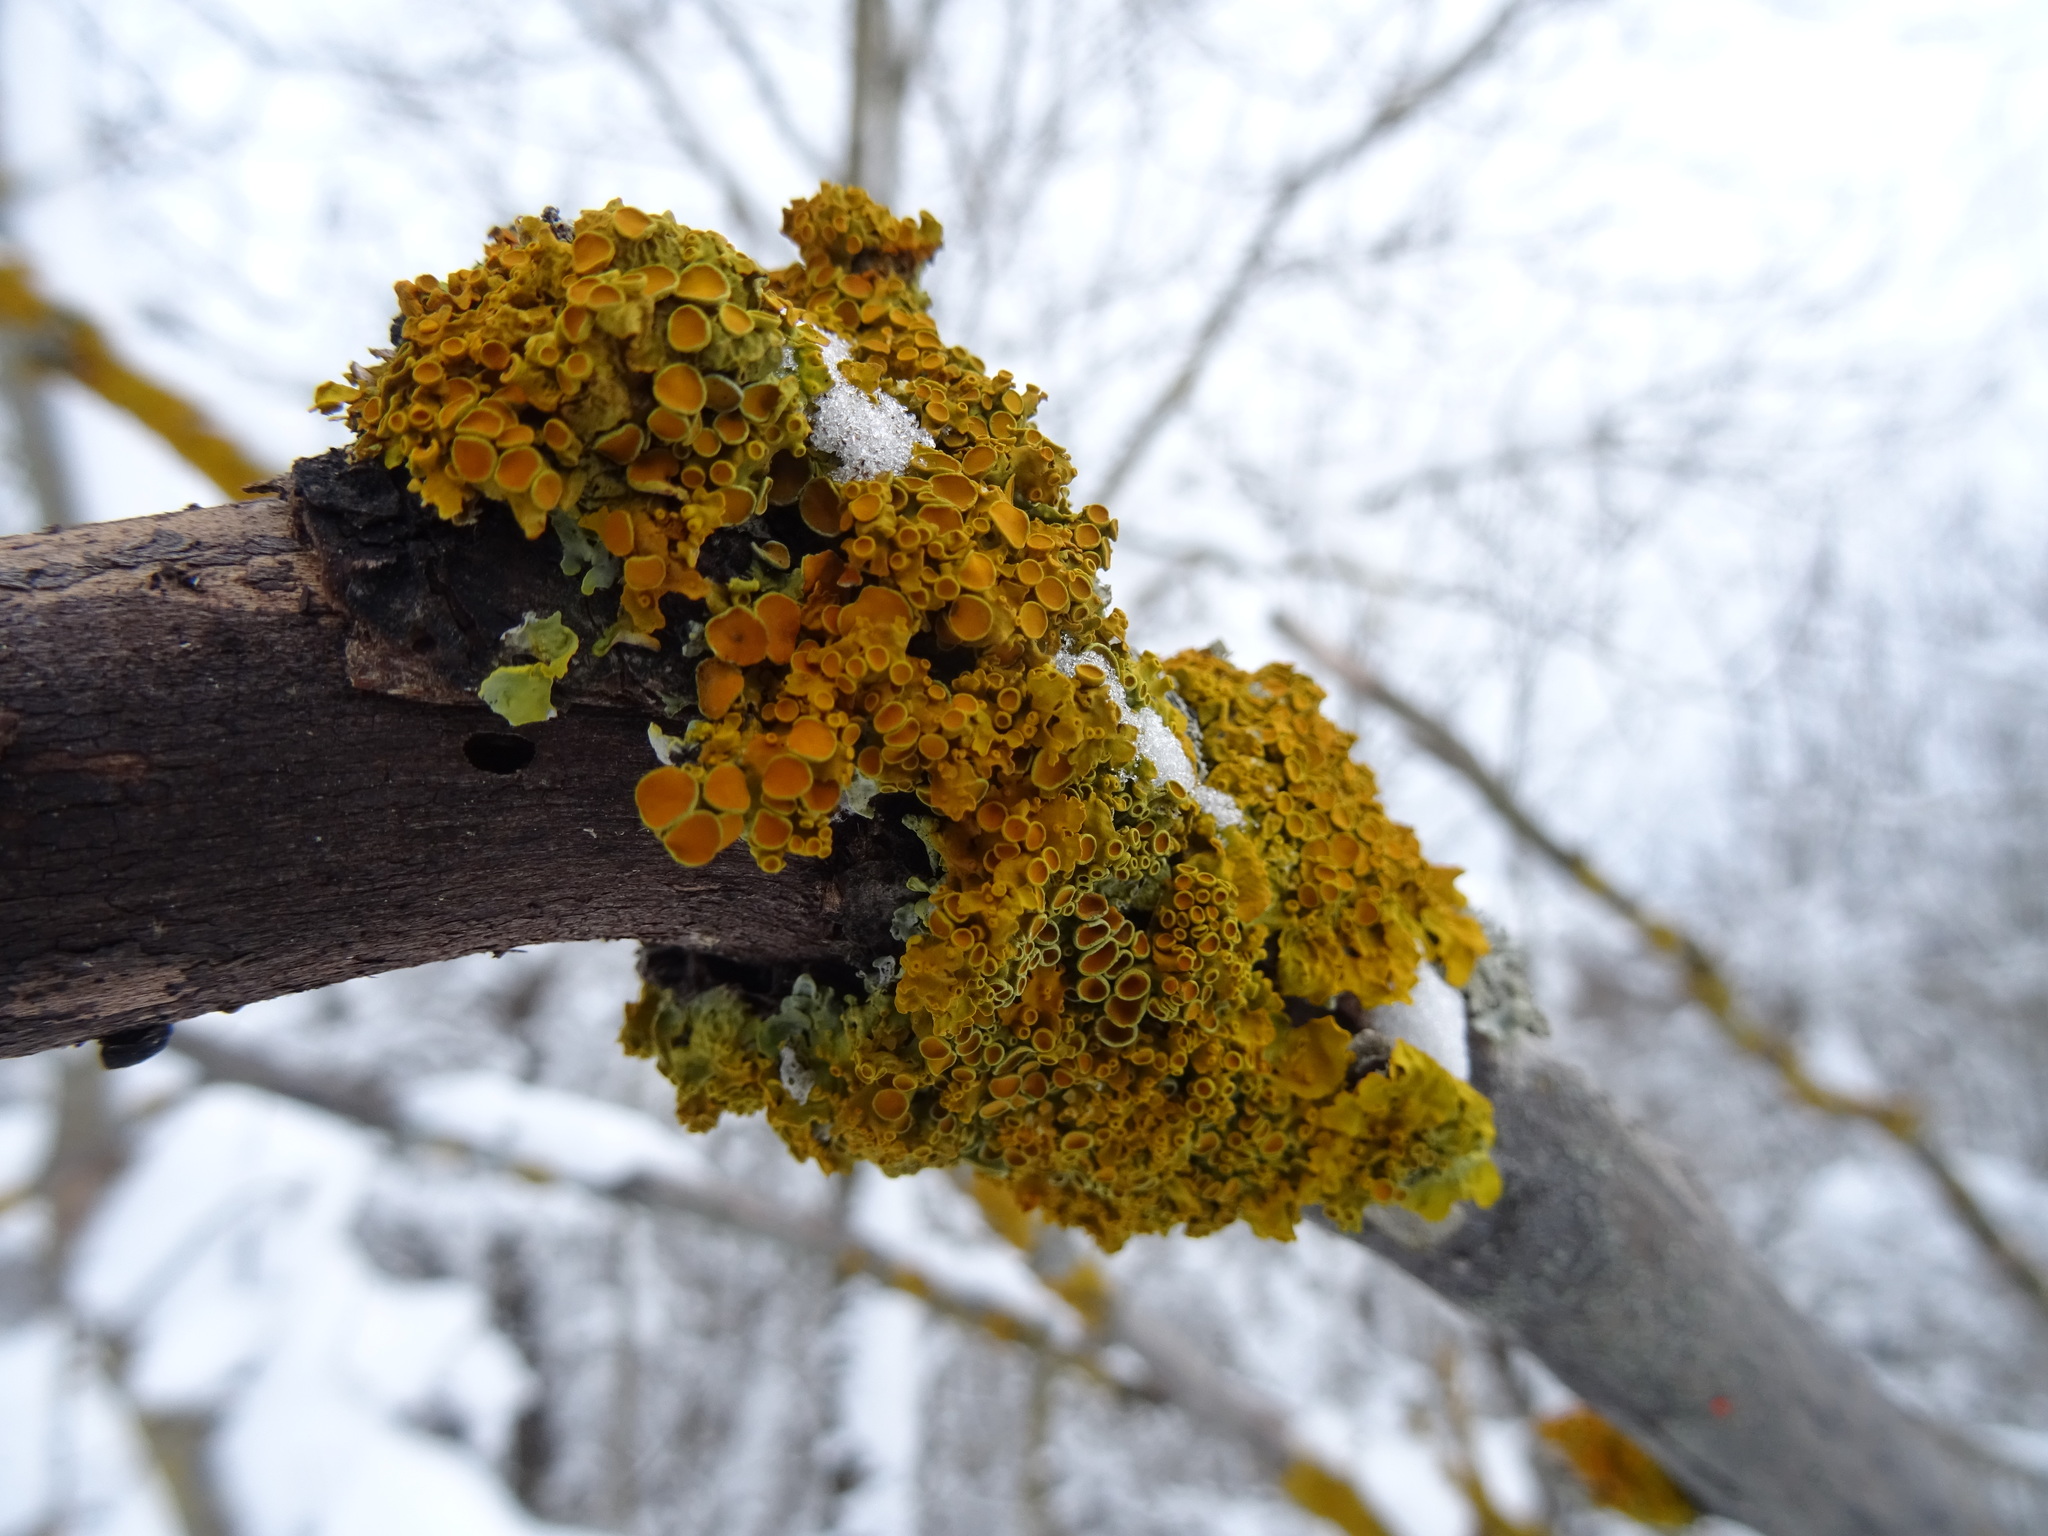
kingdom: Fungi
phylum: Ascomycota
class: Lecanoromycetes
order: Teloschistales
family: Teloschistaceae
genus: Xanthoria
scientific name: Xanthoria parietina
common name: Common orange lichen
